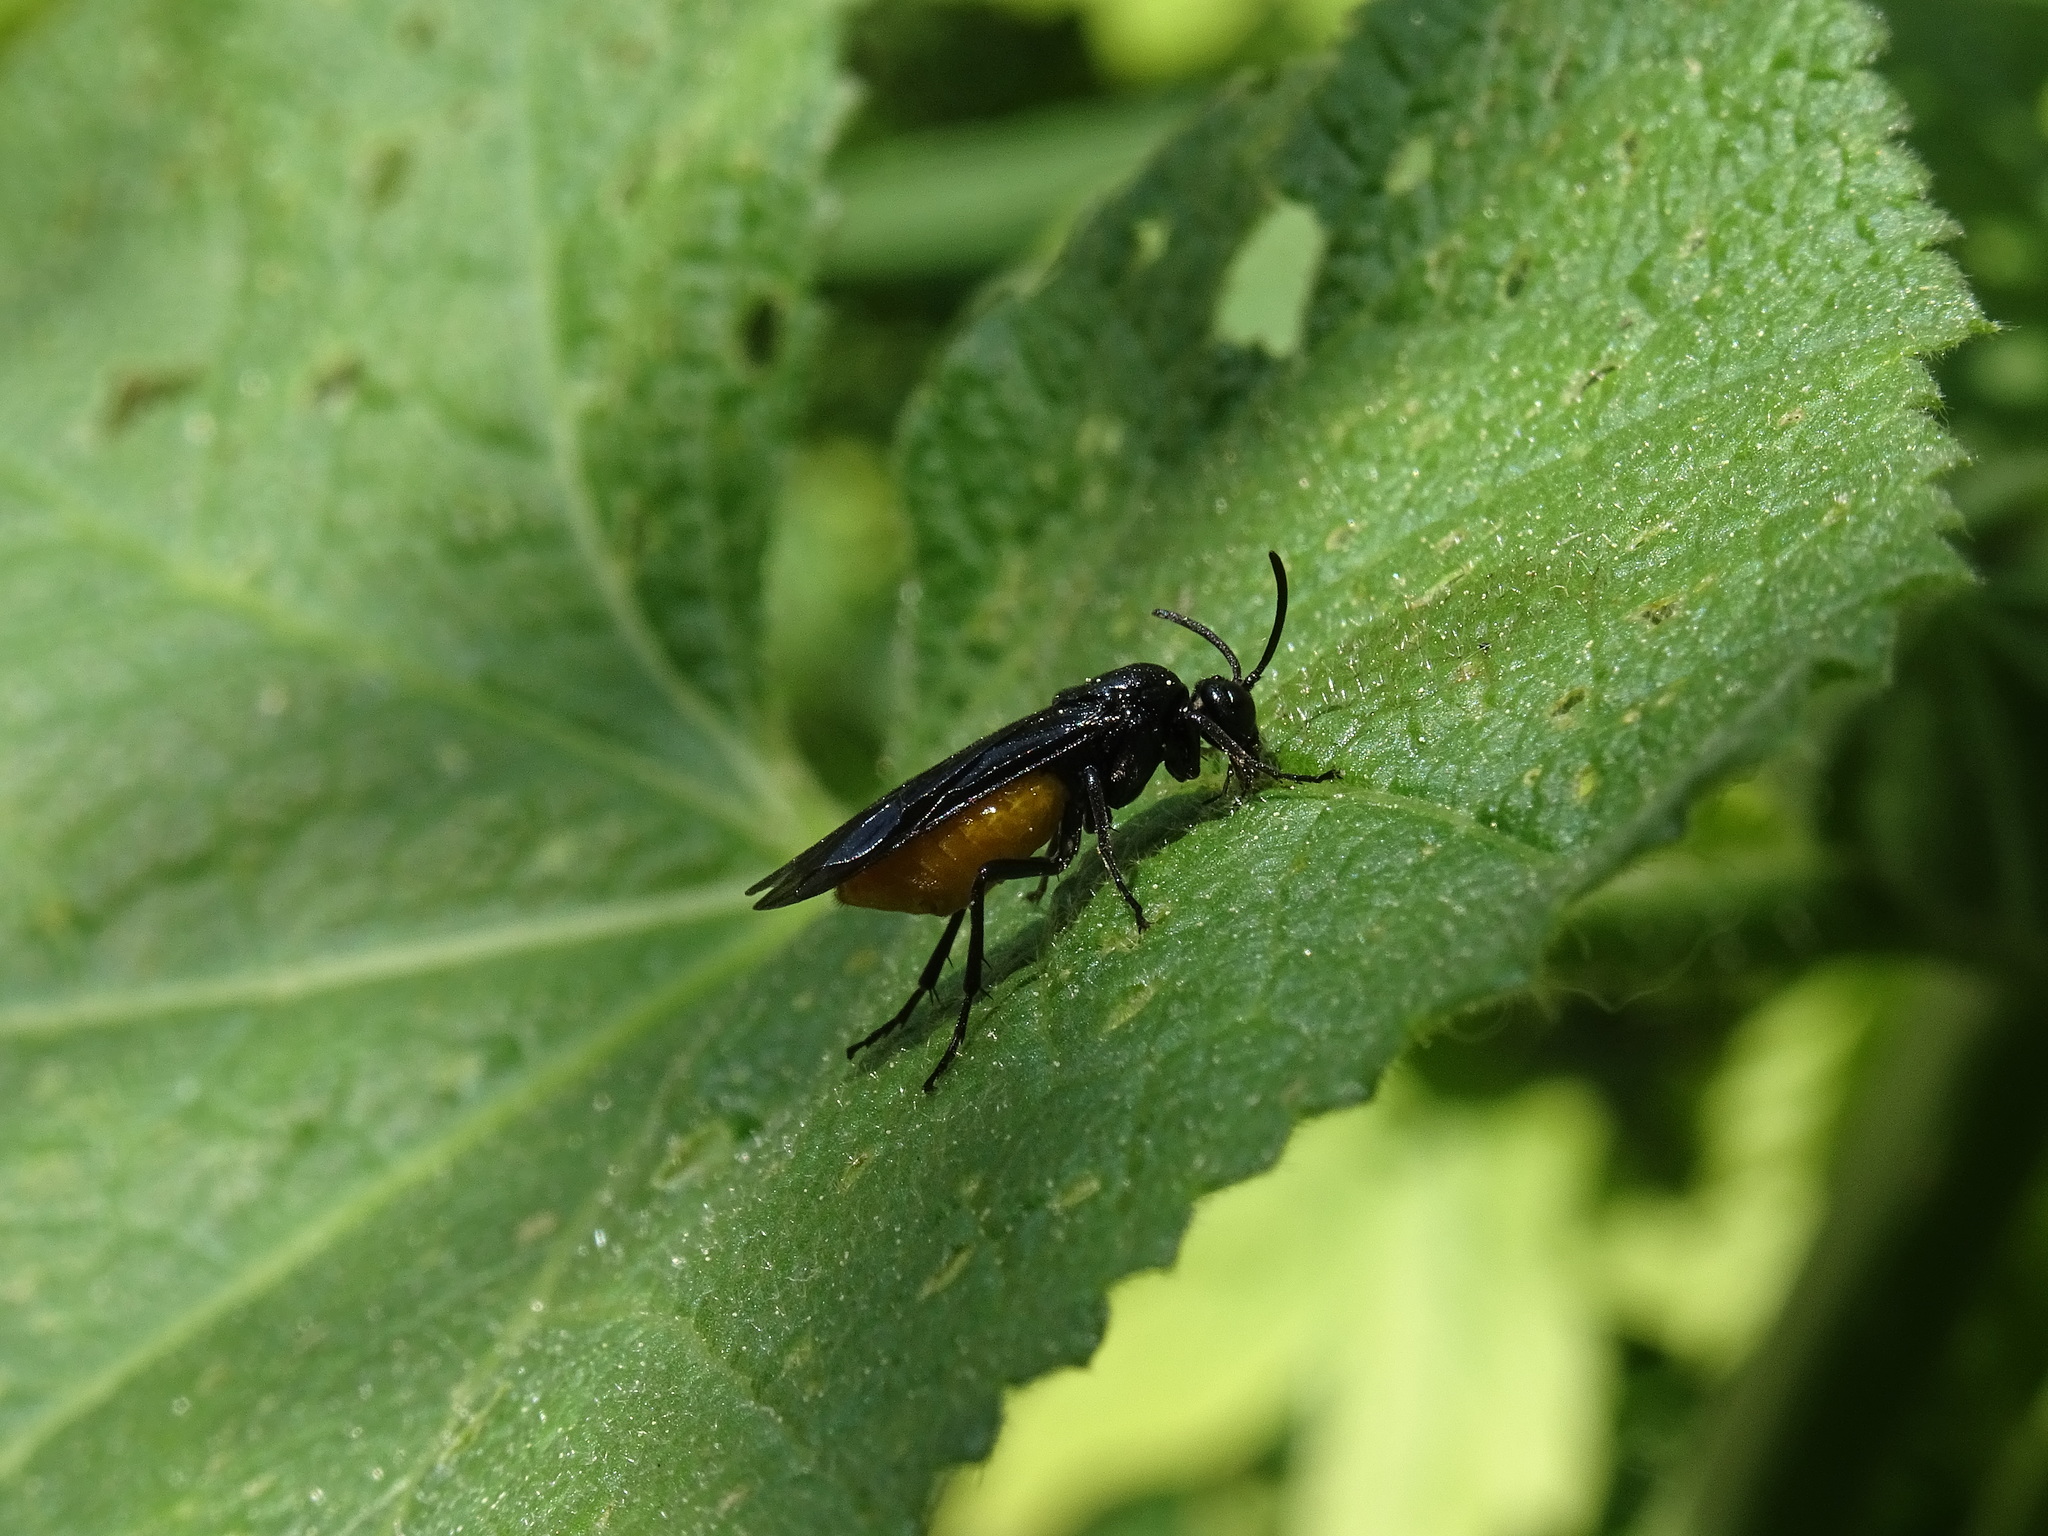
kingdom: Animalia
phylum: Arthropoda
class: Insecta
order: Hymenoptera
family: Argidae
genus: Arge
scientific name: Arge pagana
